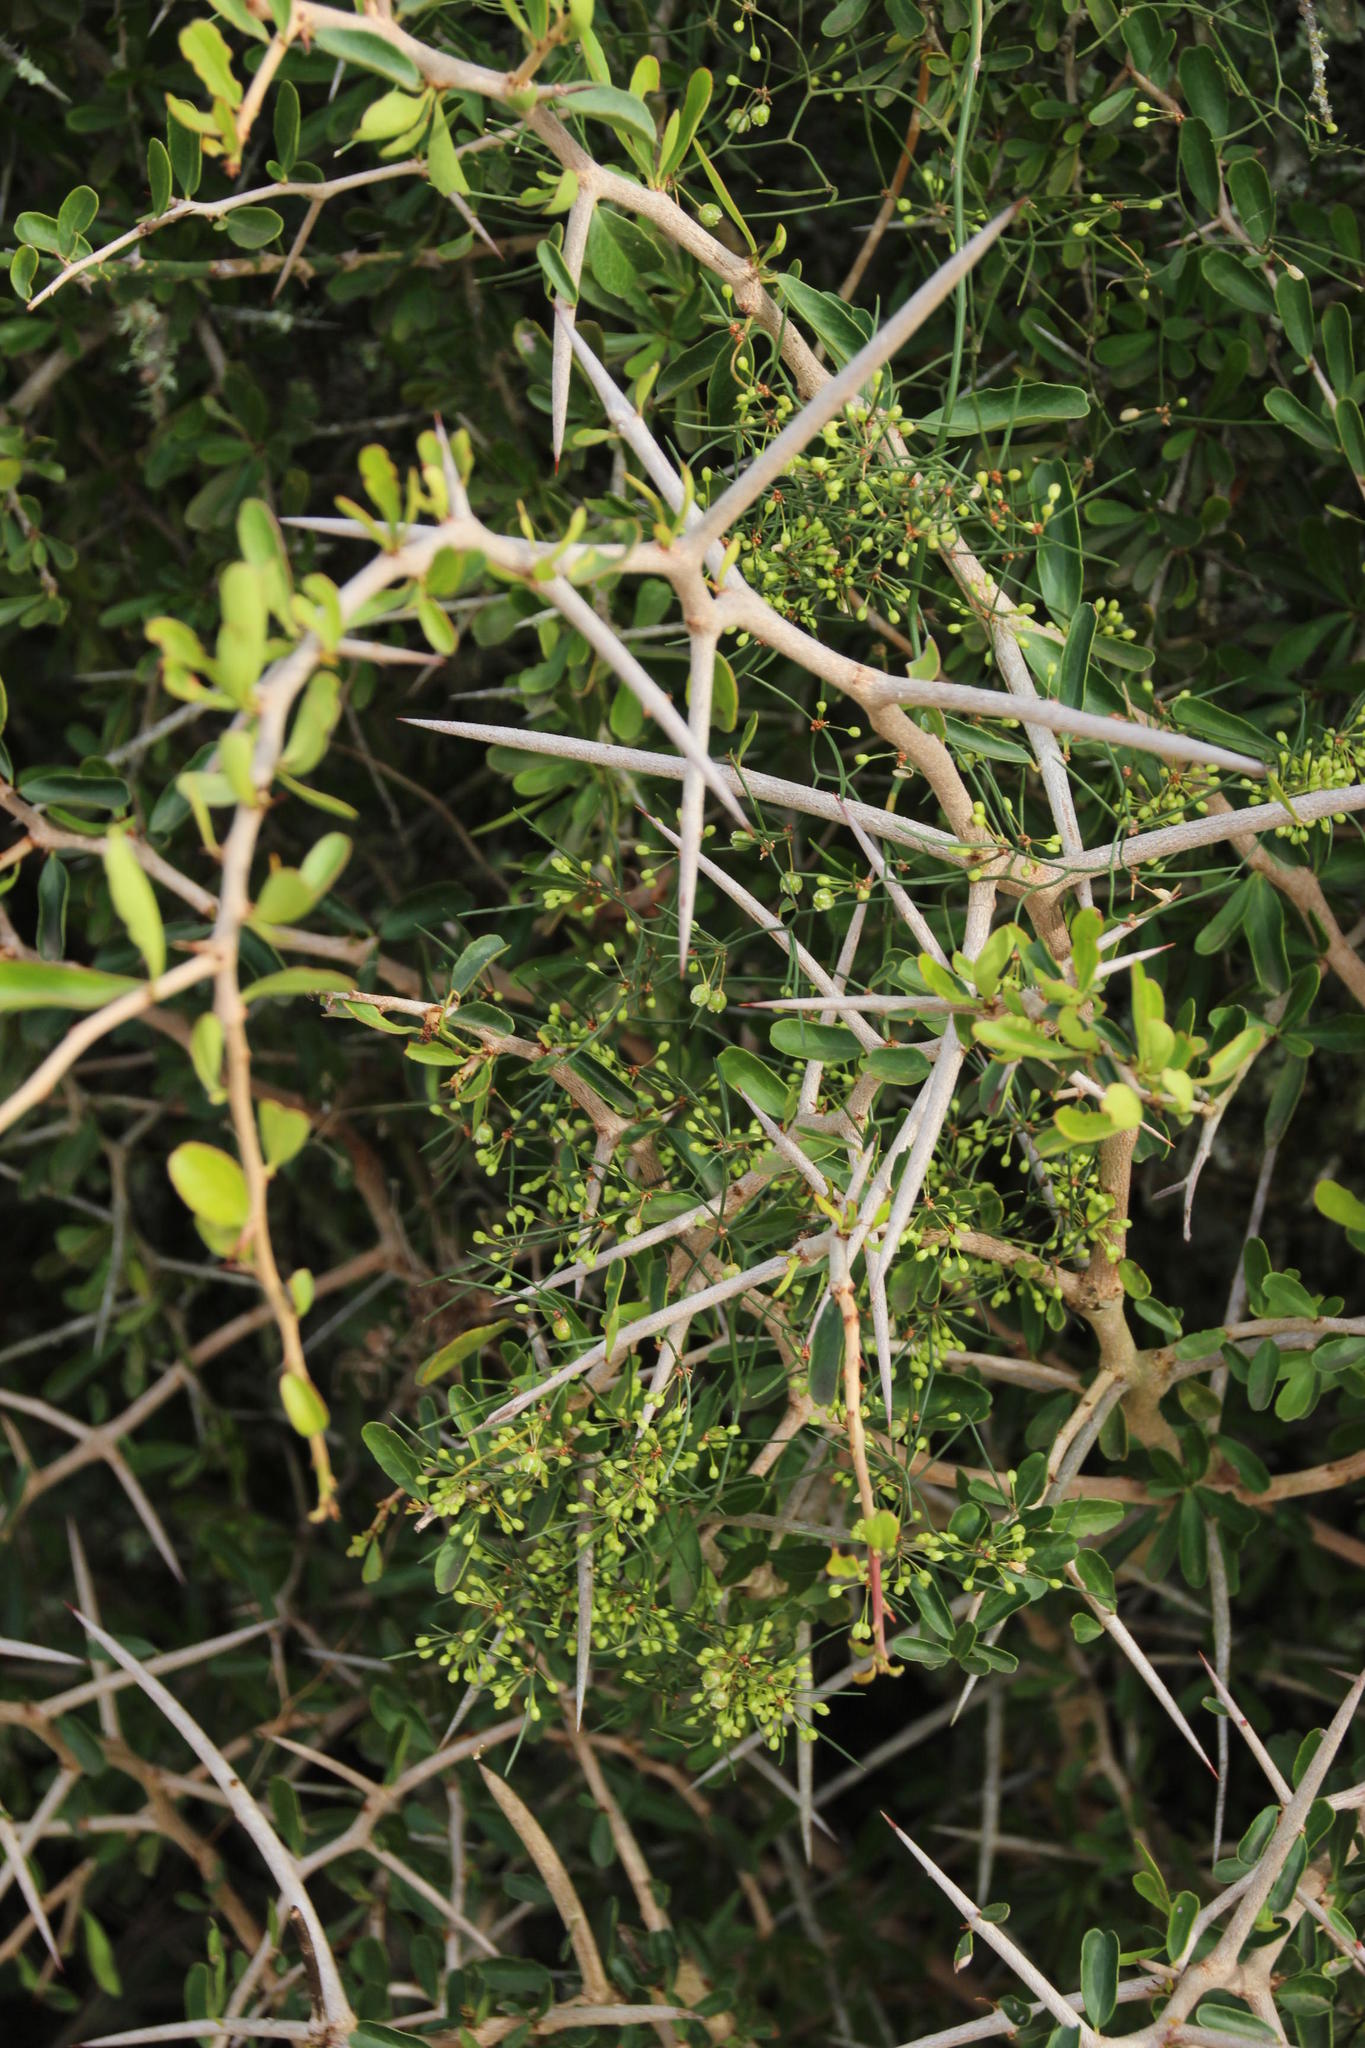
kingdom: Plantae
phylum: Tracheophyta
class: Liliopsida
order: Asparagales
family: Asparagaceae
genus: Asparagus
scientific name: Asparagus subulatus
